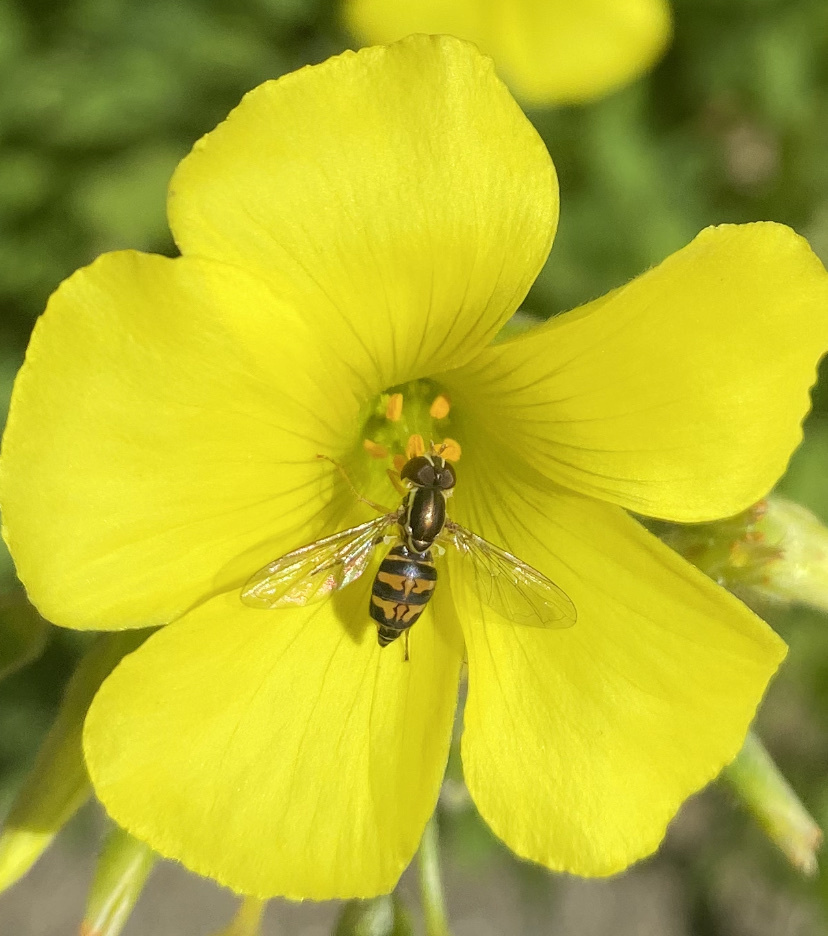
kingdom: Animalia
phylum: Arthropoda
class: Insecta
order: Diptera
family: Syrphidae
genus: Toxomerus
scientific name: Toxomerus occidentalis
